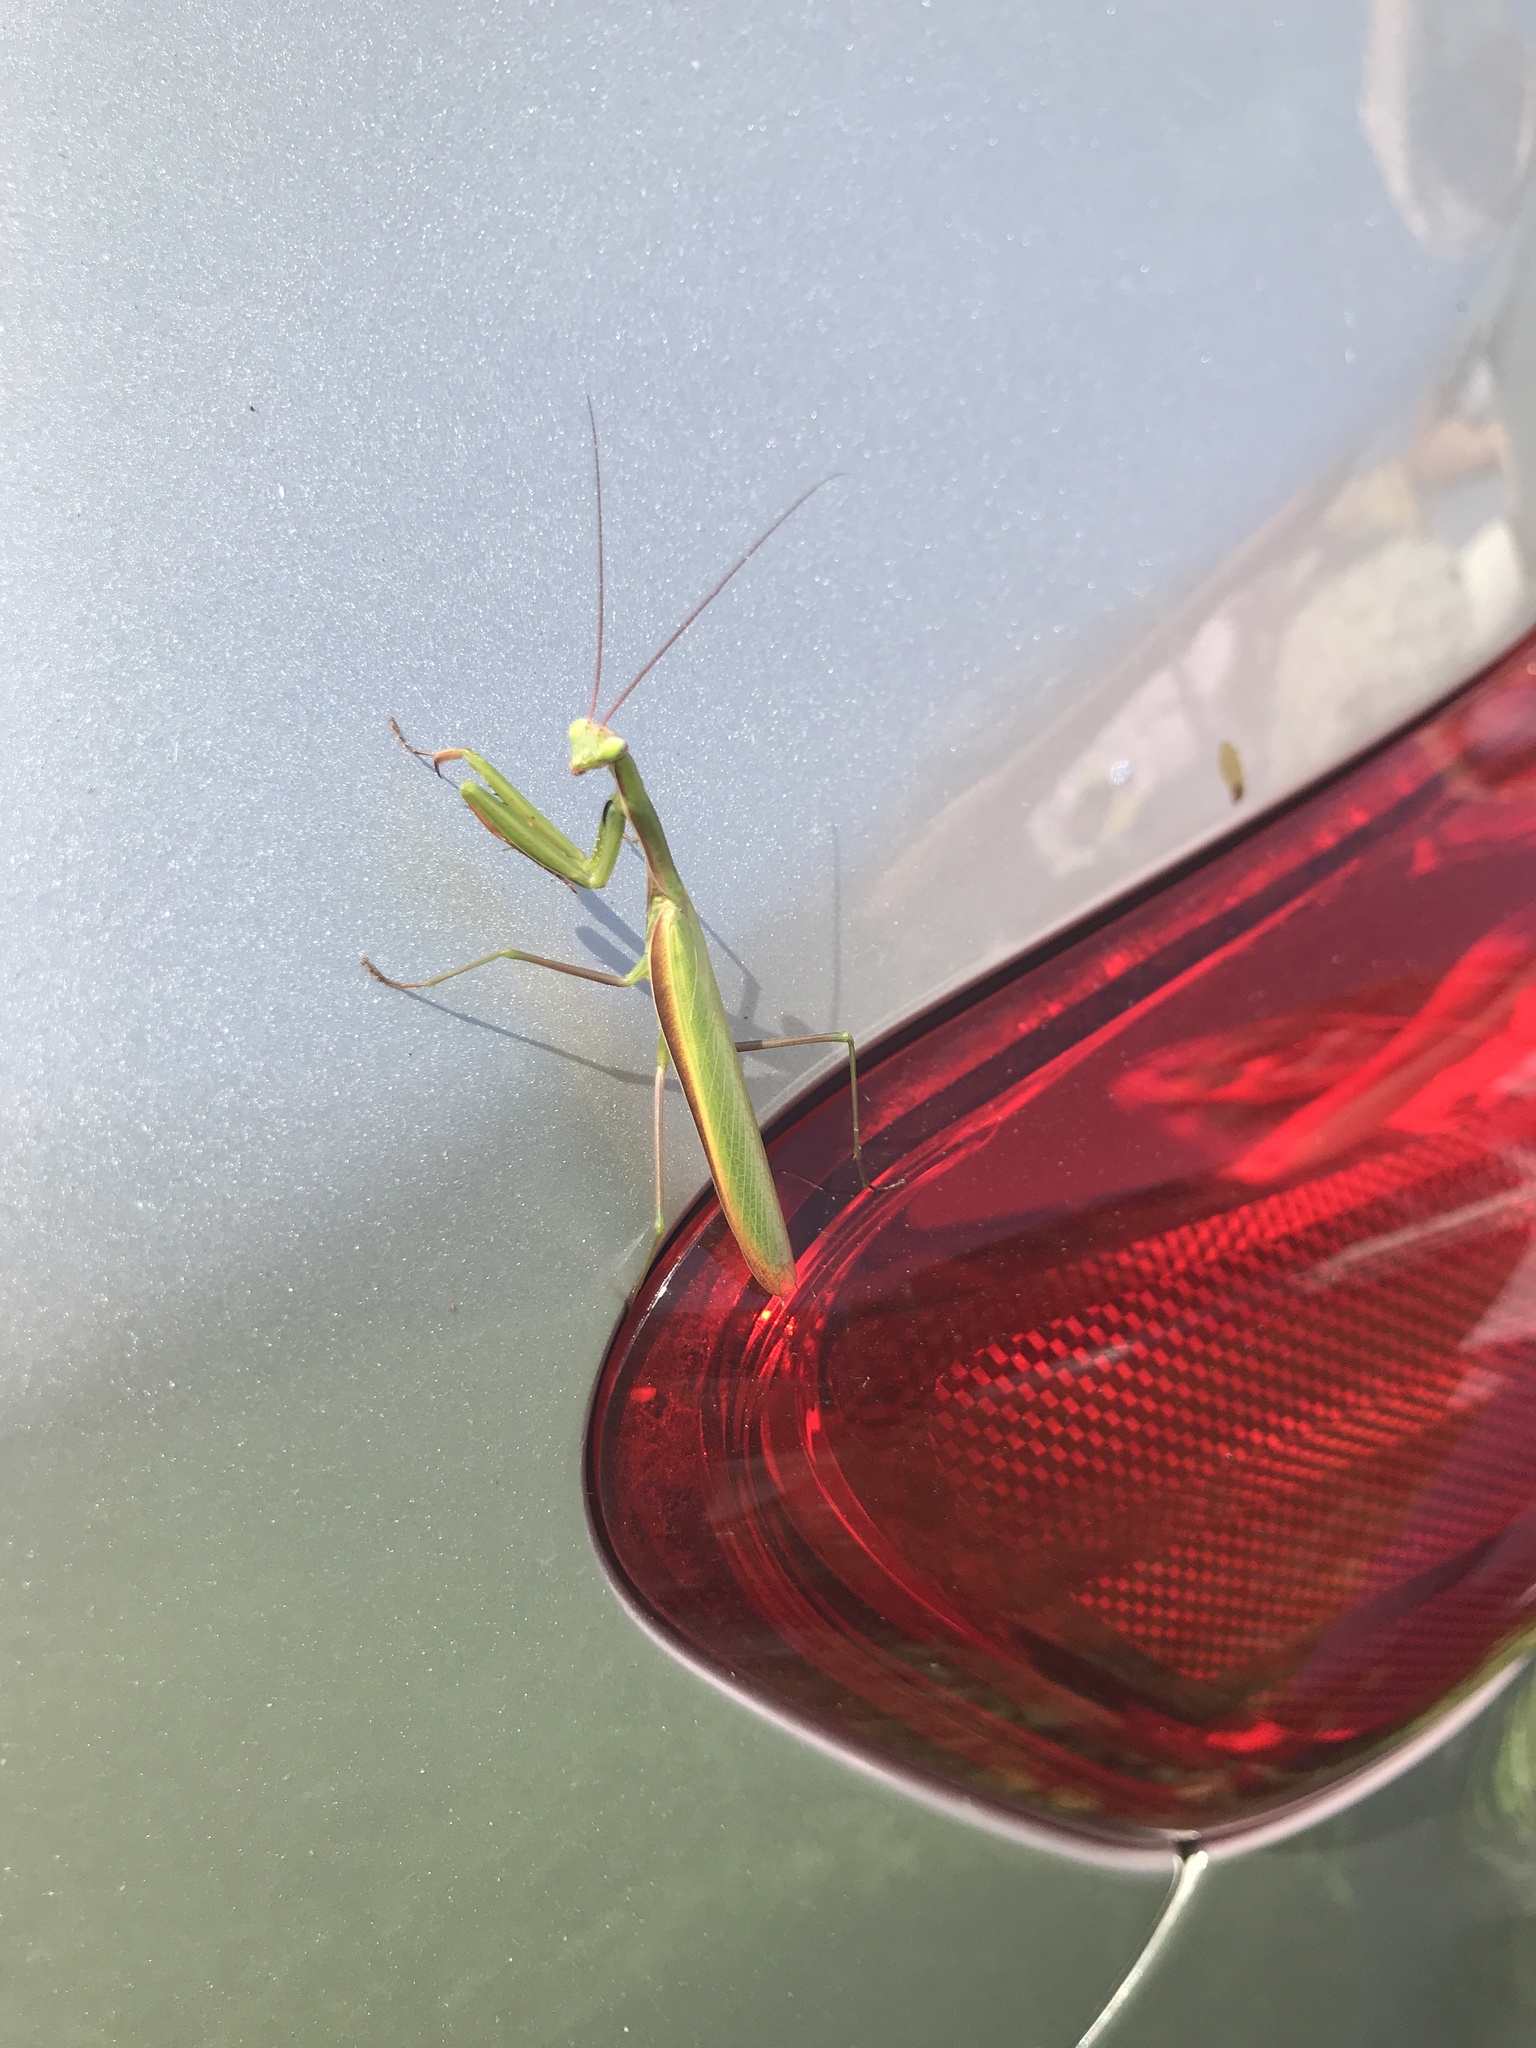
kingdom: Animalia
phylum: Arthropoda
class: Insecta
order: Mantodea
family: Mantidae
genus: Mantis
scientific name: Mantis religiosa
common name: Praying mantis
